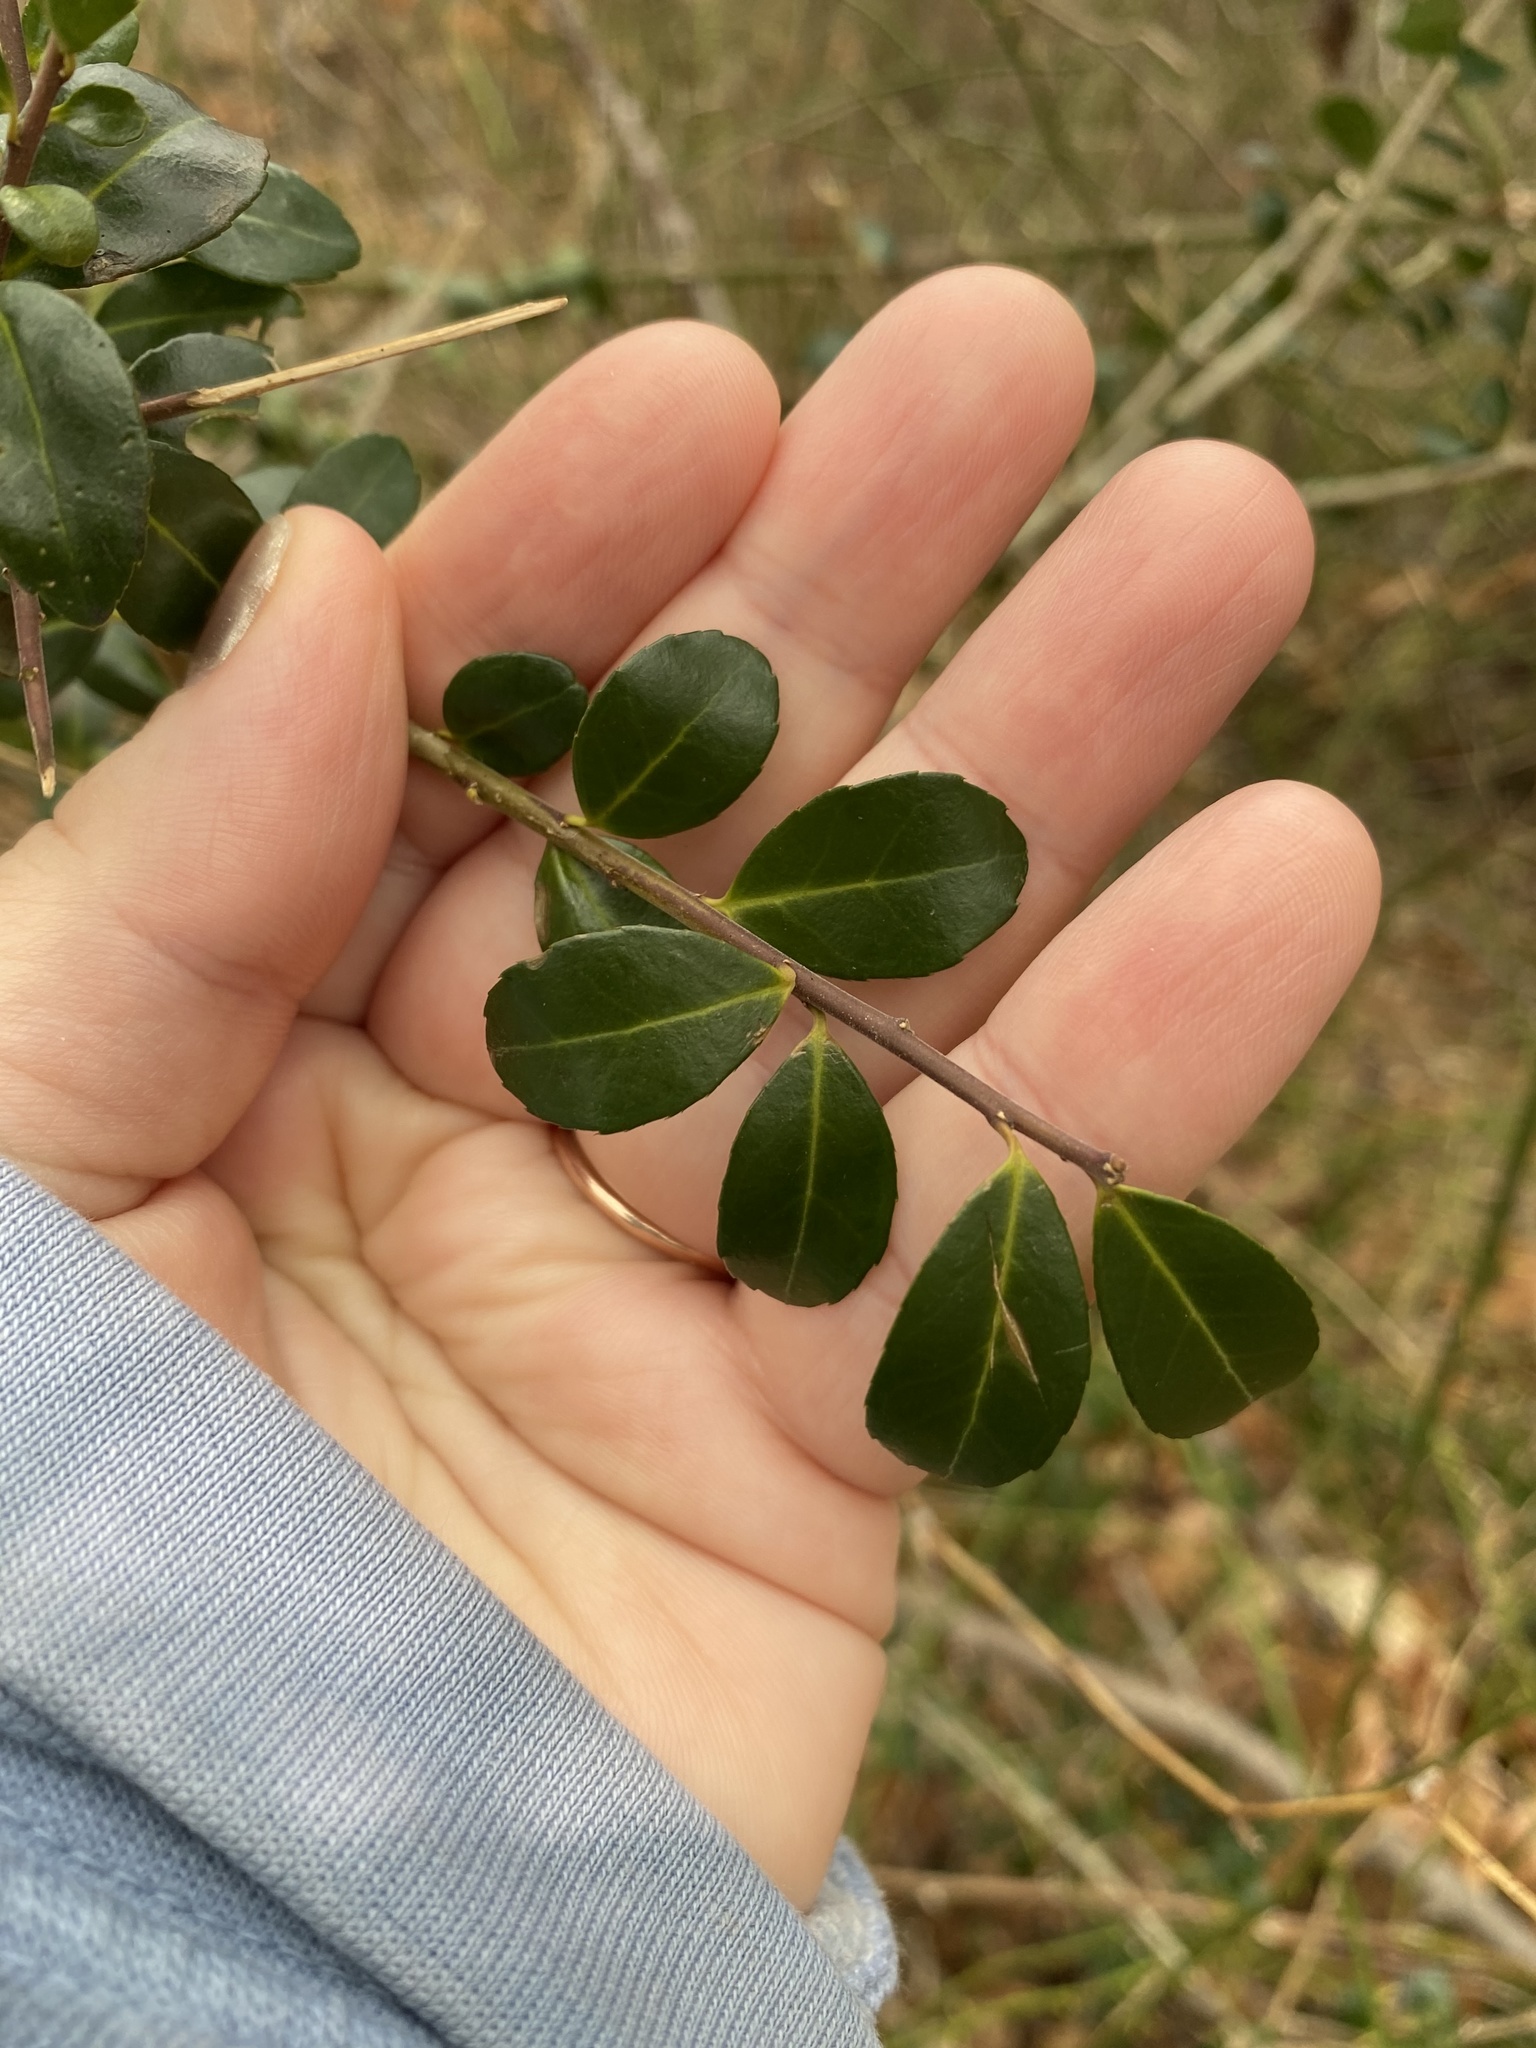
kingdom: Plantae
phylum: Tracheophyta
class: Magnoliopsida
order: Aquifoliales
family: Aquifoliaceae
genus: Ilex
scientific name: Ilex crenata
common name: Japanese holly
